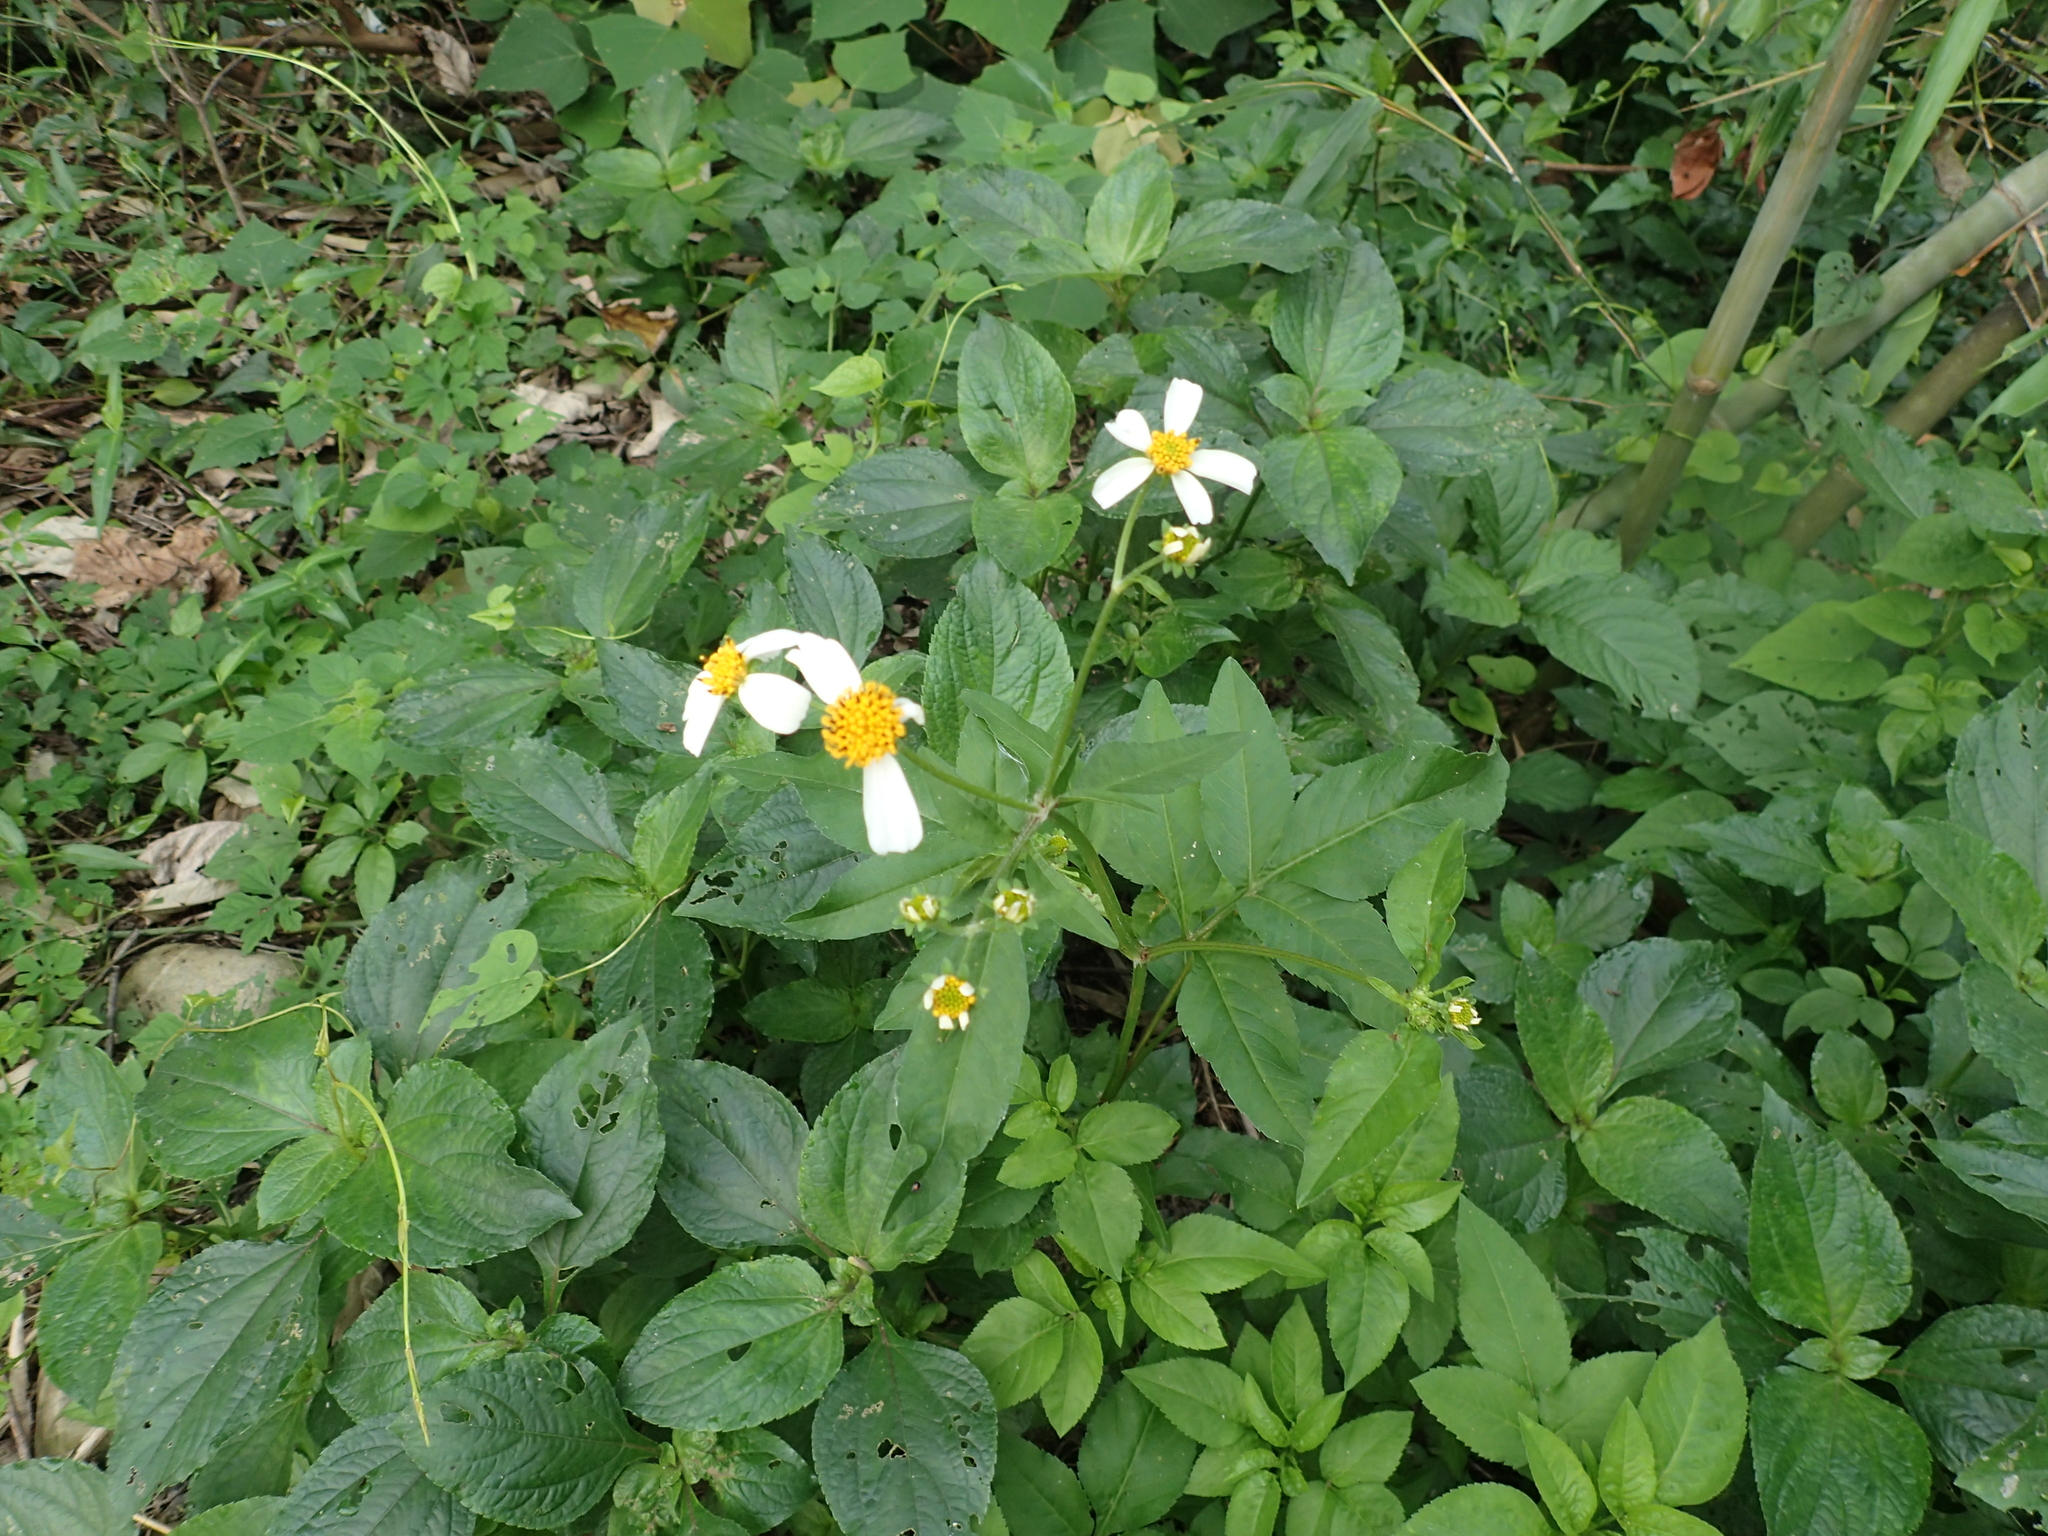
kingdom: Plantae
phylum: Tracheophyta
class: Magnoliopsida
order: Asterales
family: Asteraceae
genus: Bidens
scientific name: Bidens alba
